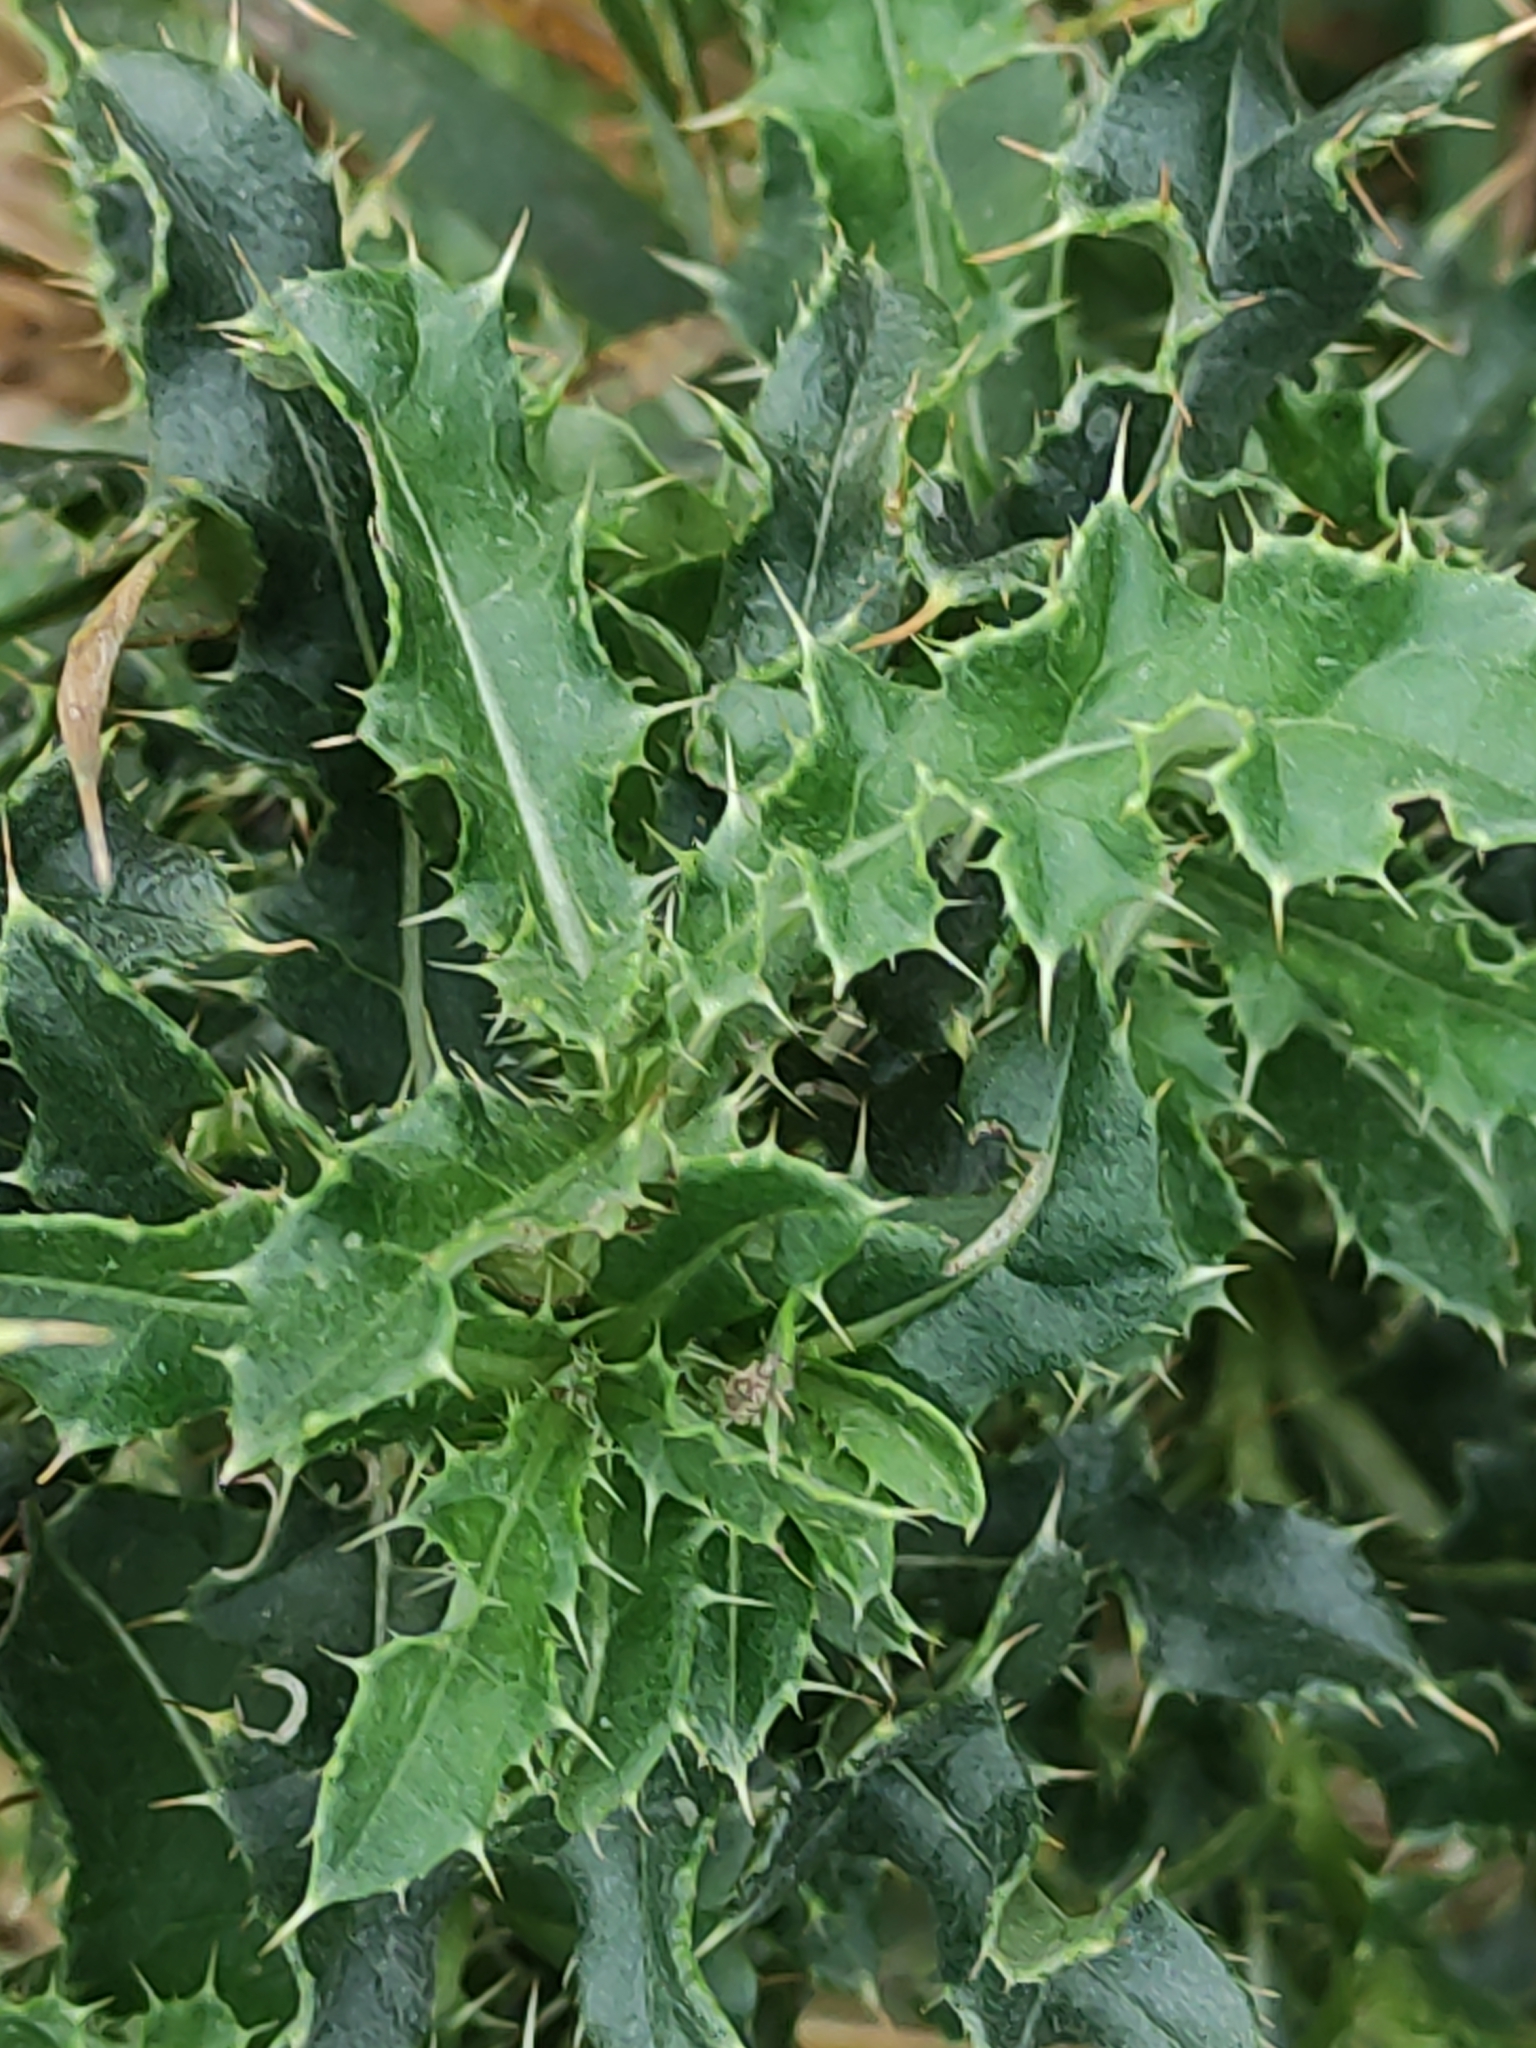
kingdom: Plantae
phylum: Tracheophyta
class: Magnoliopsida
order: Asterales
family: Asteraceae
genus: Cirsium
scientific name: Cirsium arvense
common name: Creeping thistle
